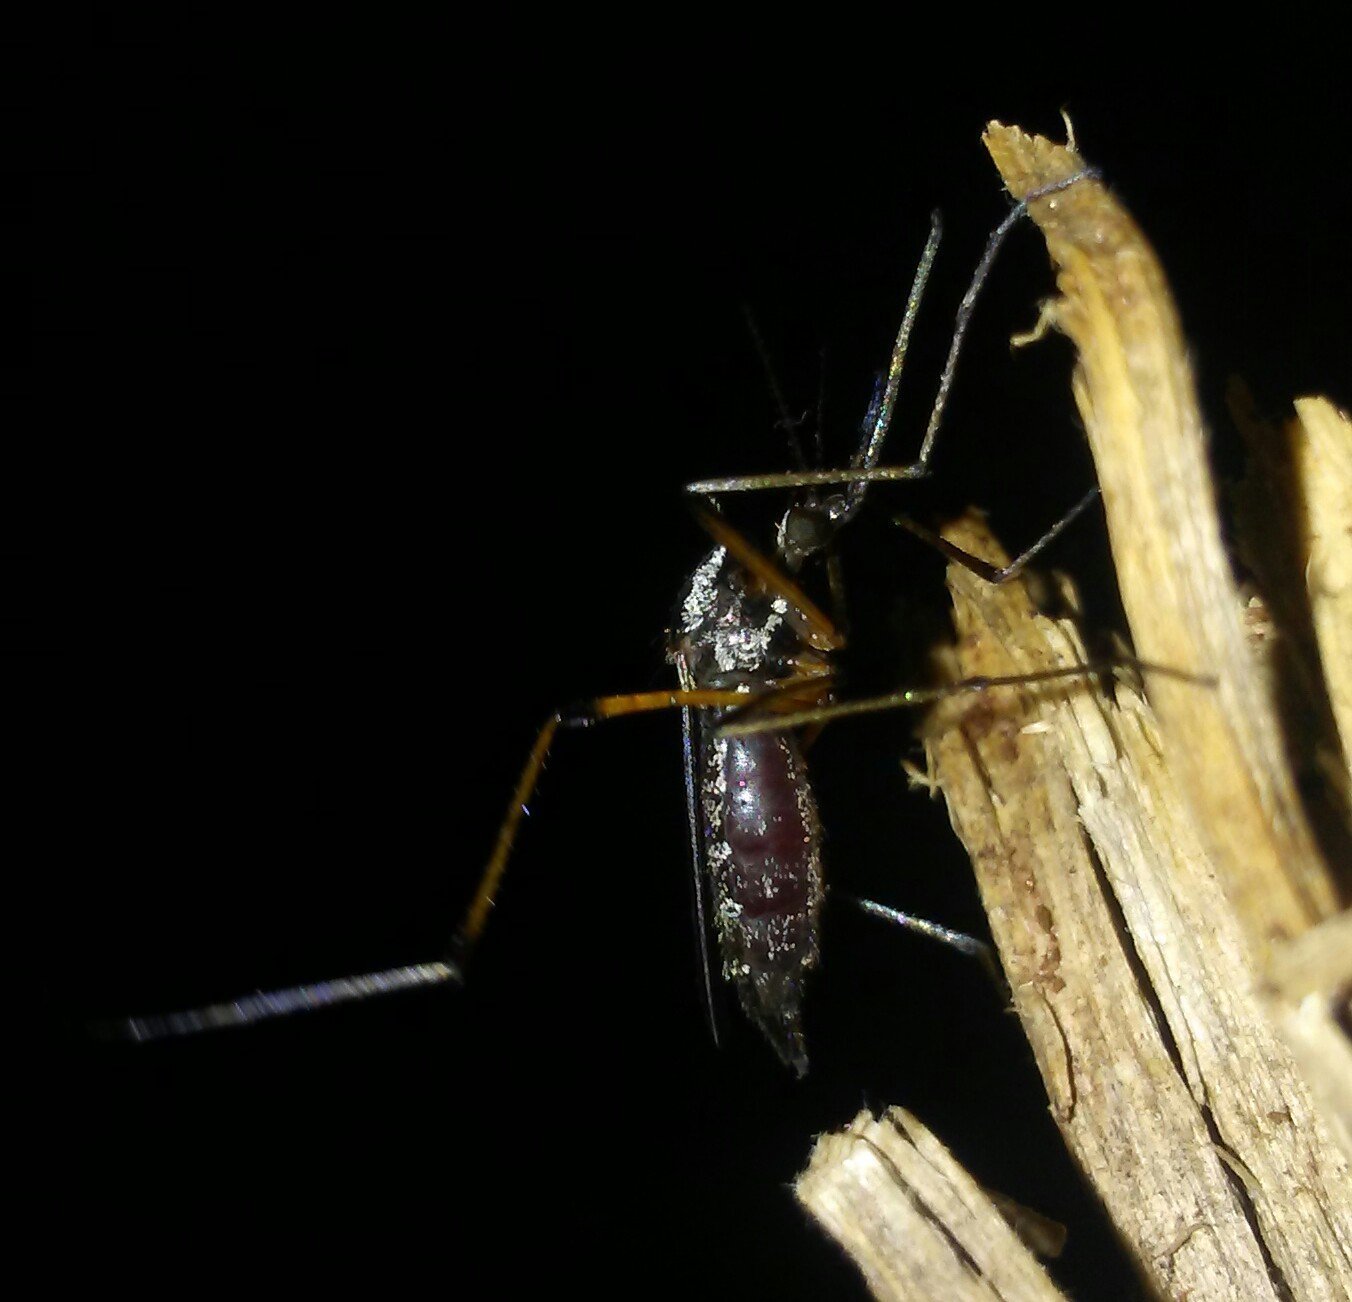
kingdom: Animalia
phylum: Arthropoda
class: Insecta
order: Diptera
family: Culicidae
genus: Psorophora
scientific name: Psorophora howardii
